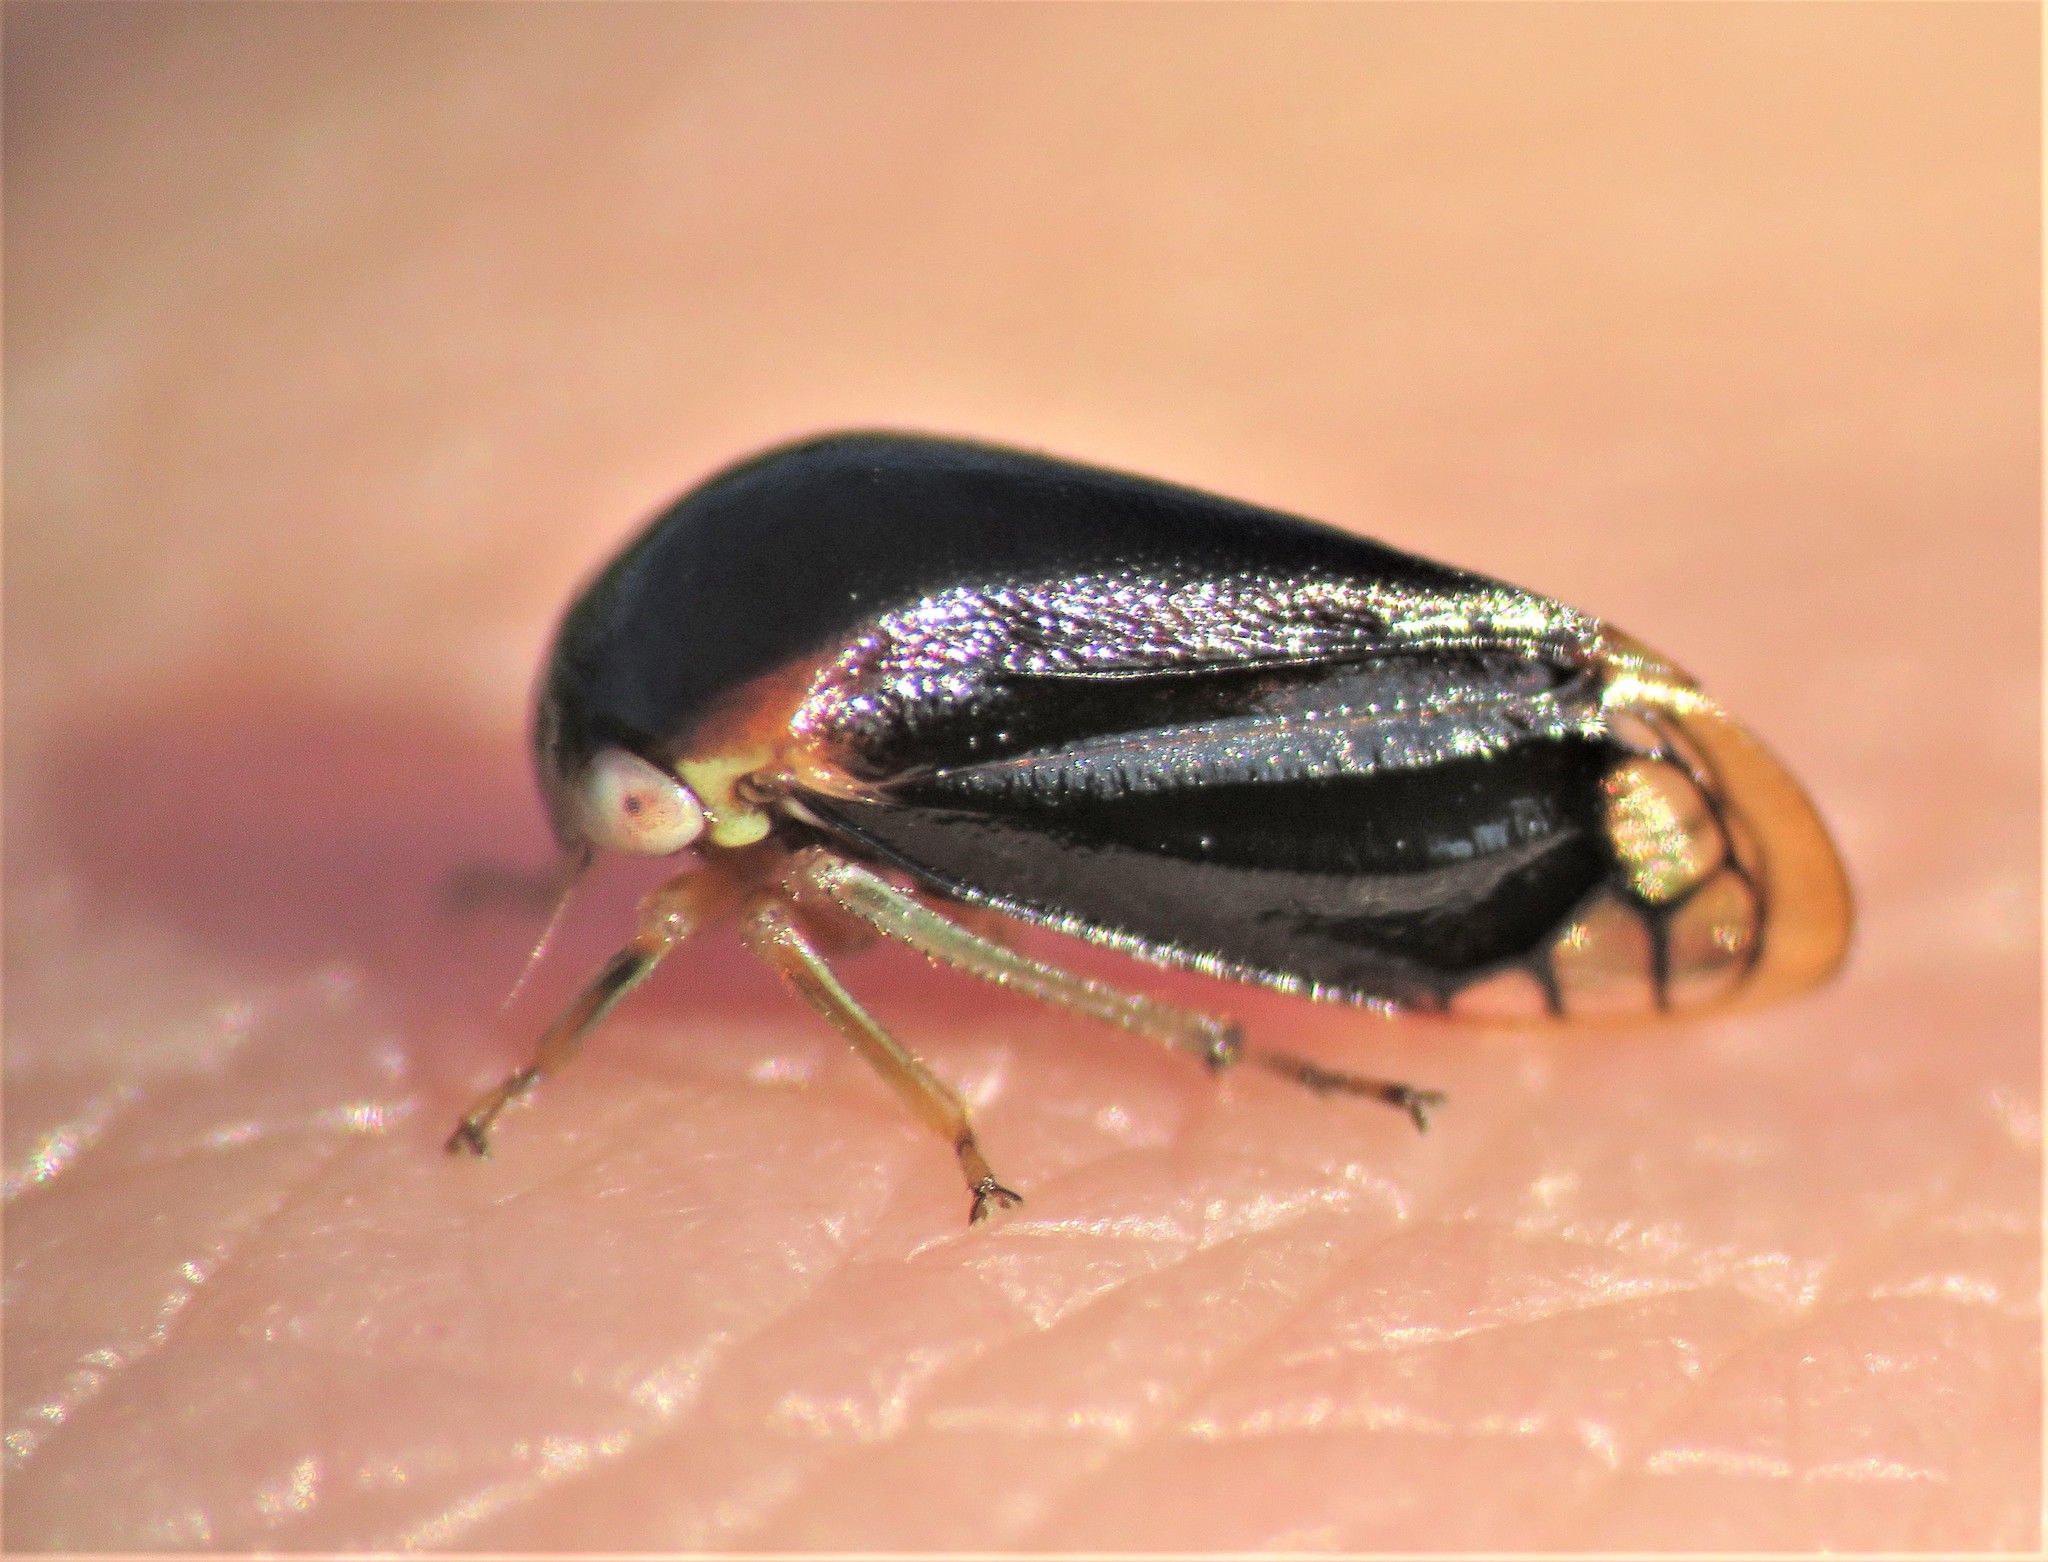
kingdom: Animalia
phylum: Arthropoda
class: Insecta
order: Hemiptera
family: Membracidae
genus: Acutalis
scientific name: Acutalis tartarea
